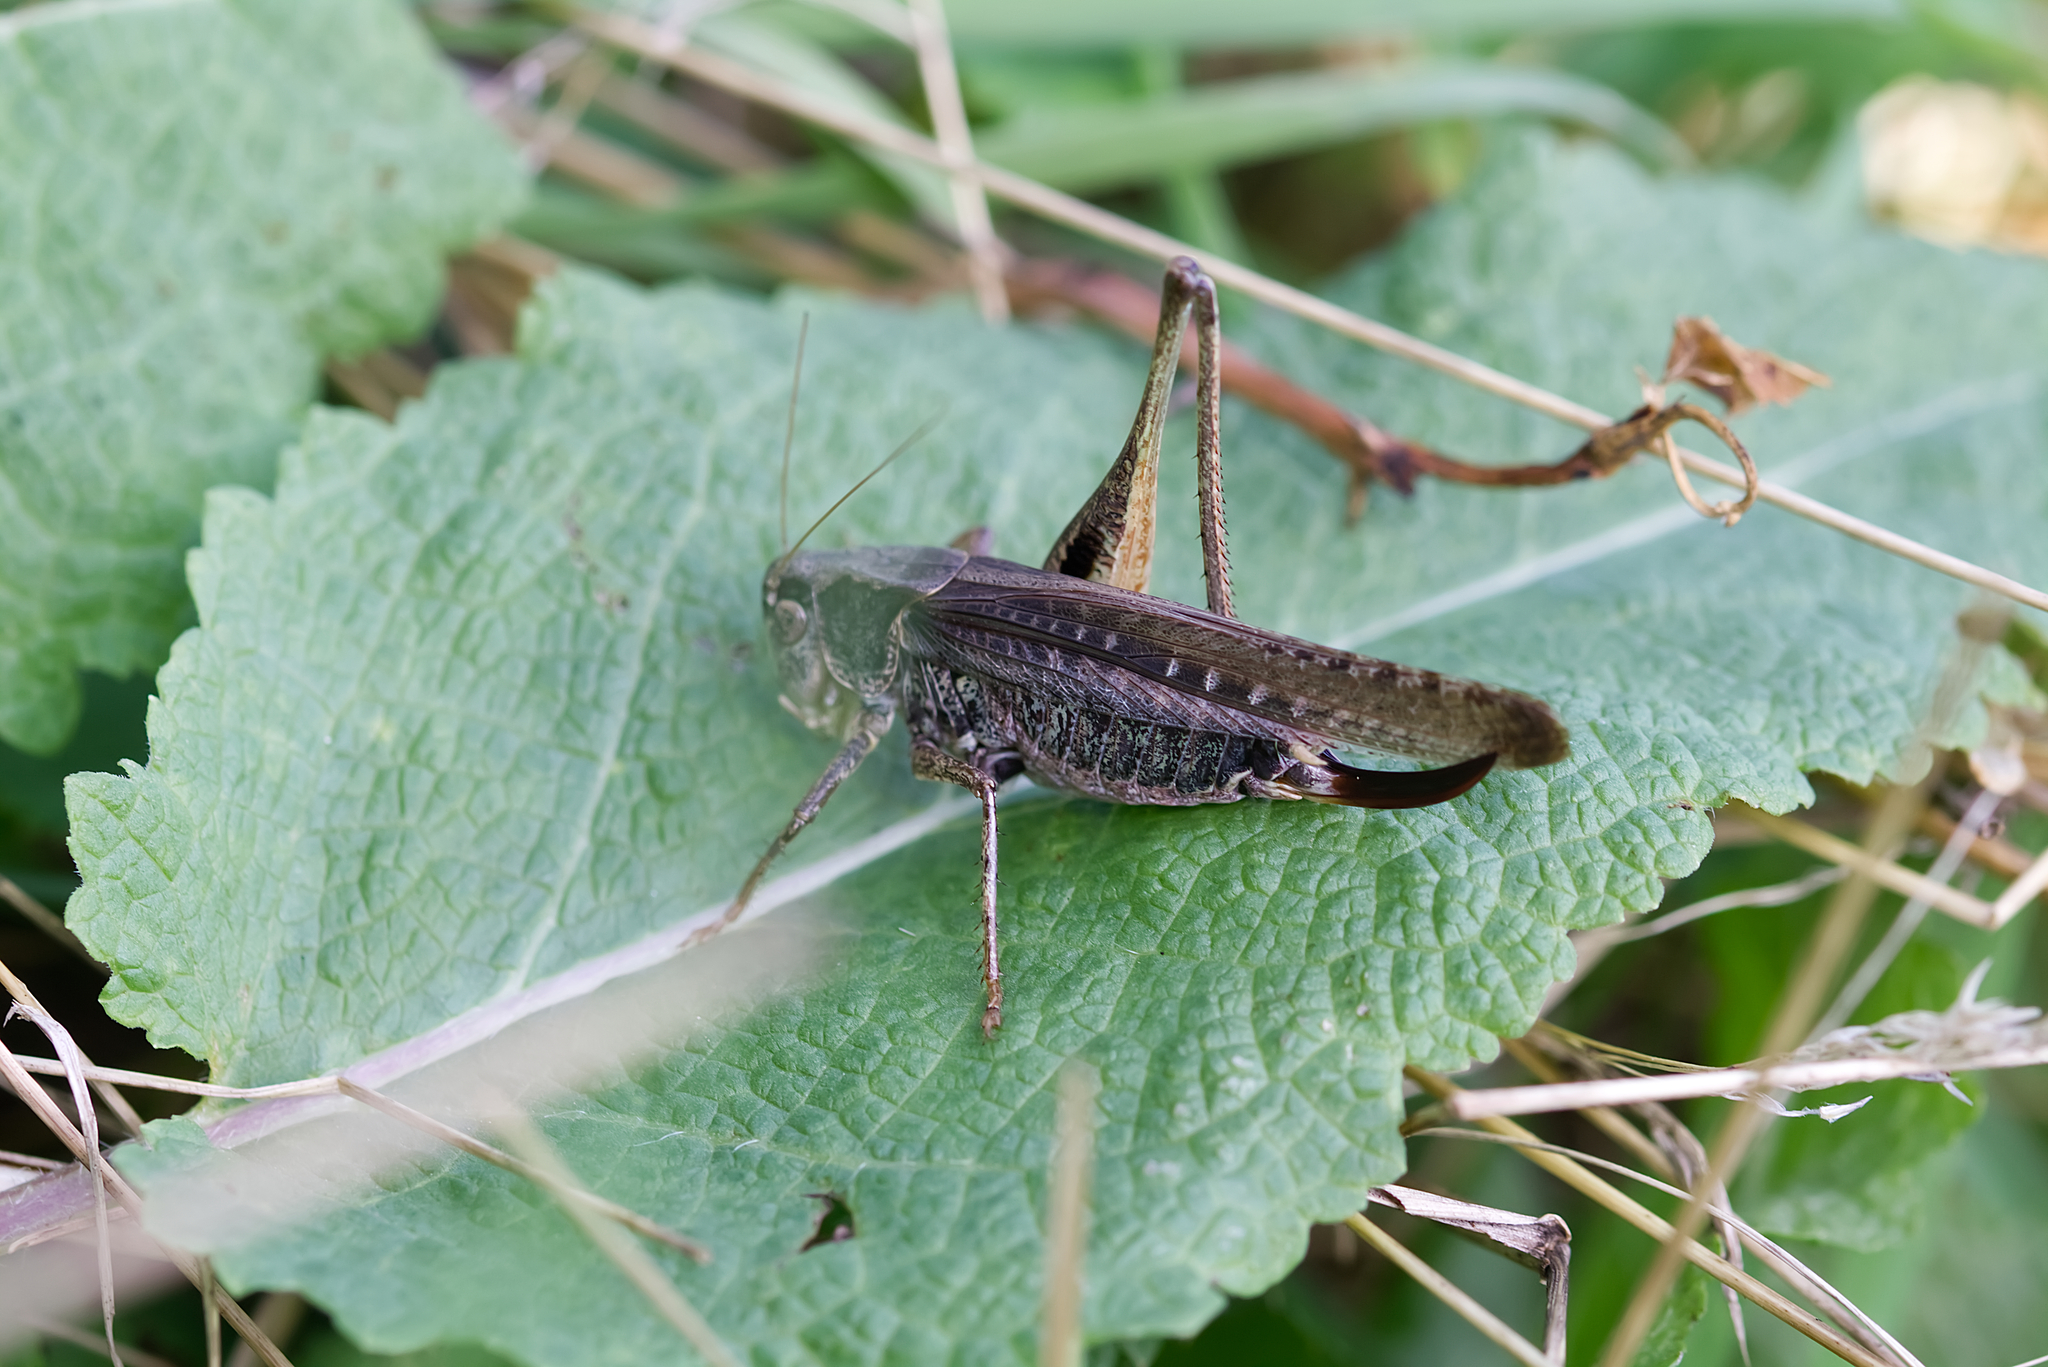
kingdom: Animalia
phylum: Arthropoda
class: Insecta
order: Orthoptera
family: Tettigoniidae
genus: Platycleis
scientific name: Platycleis grisea
